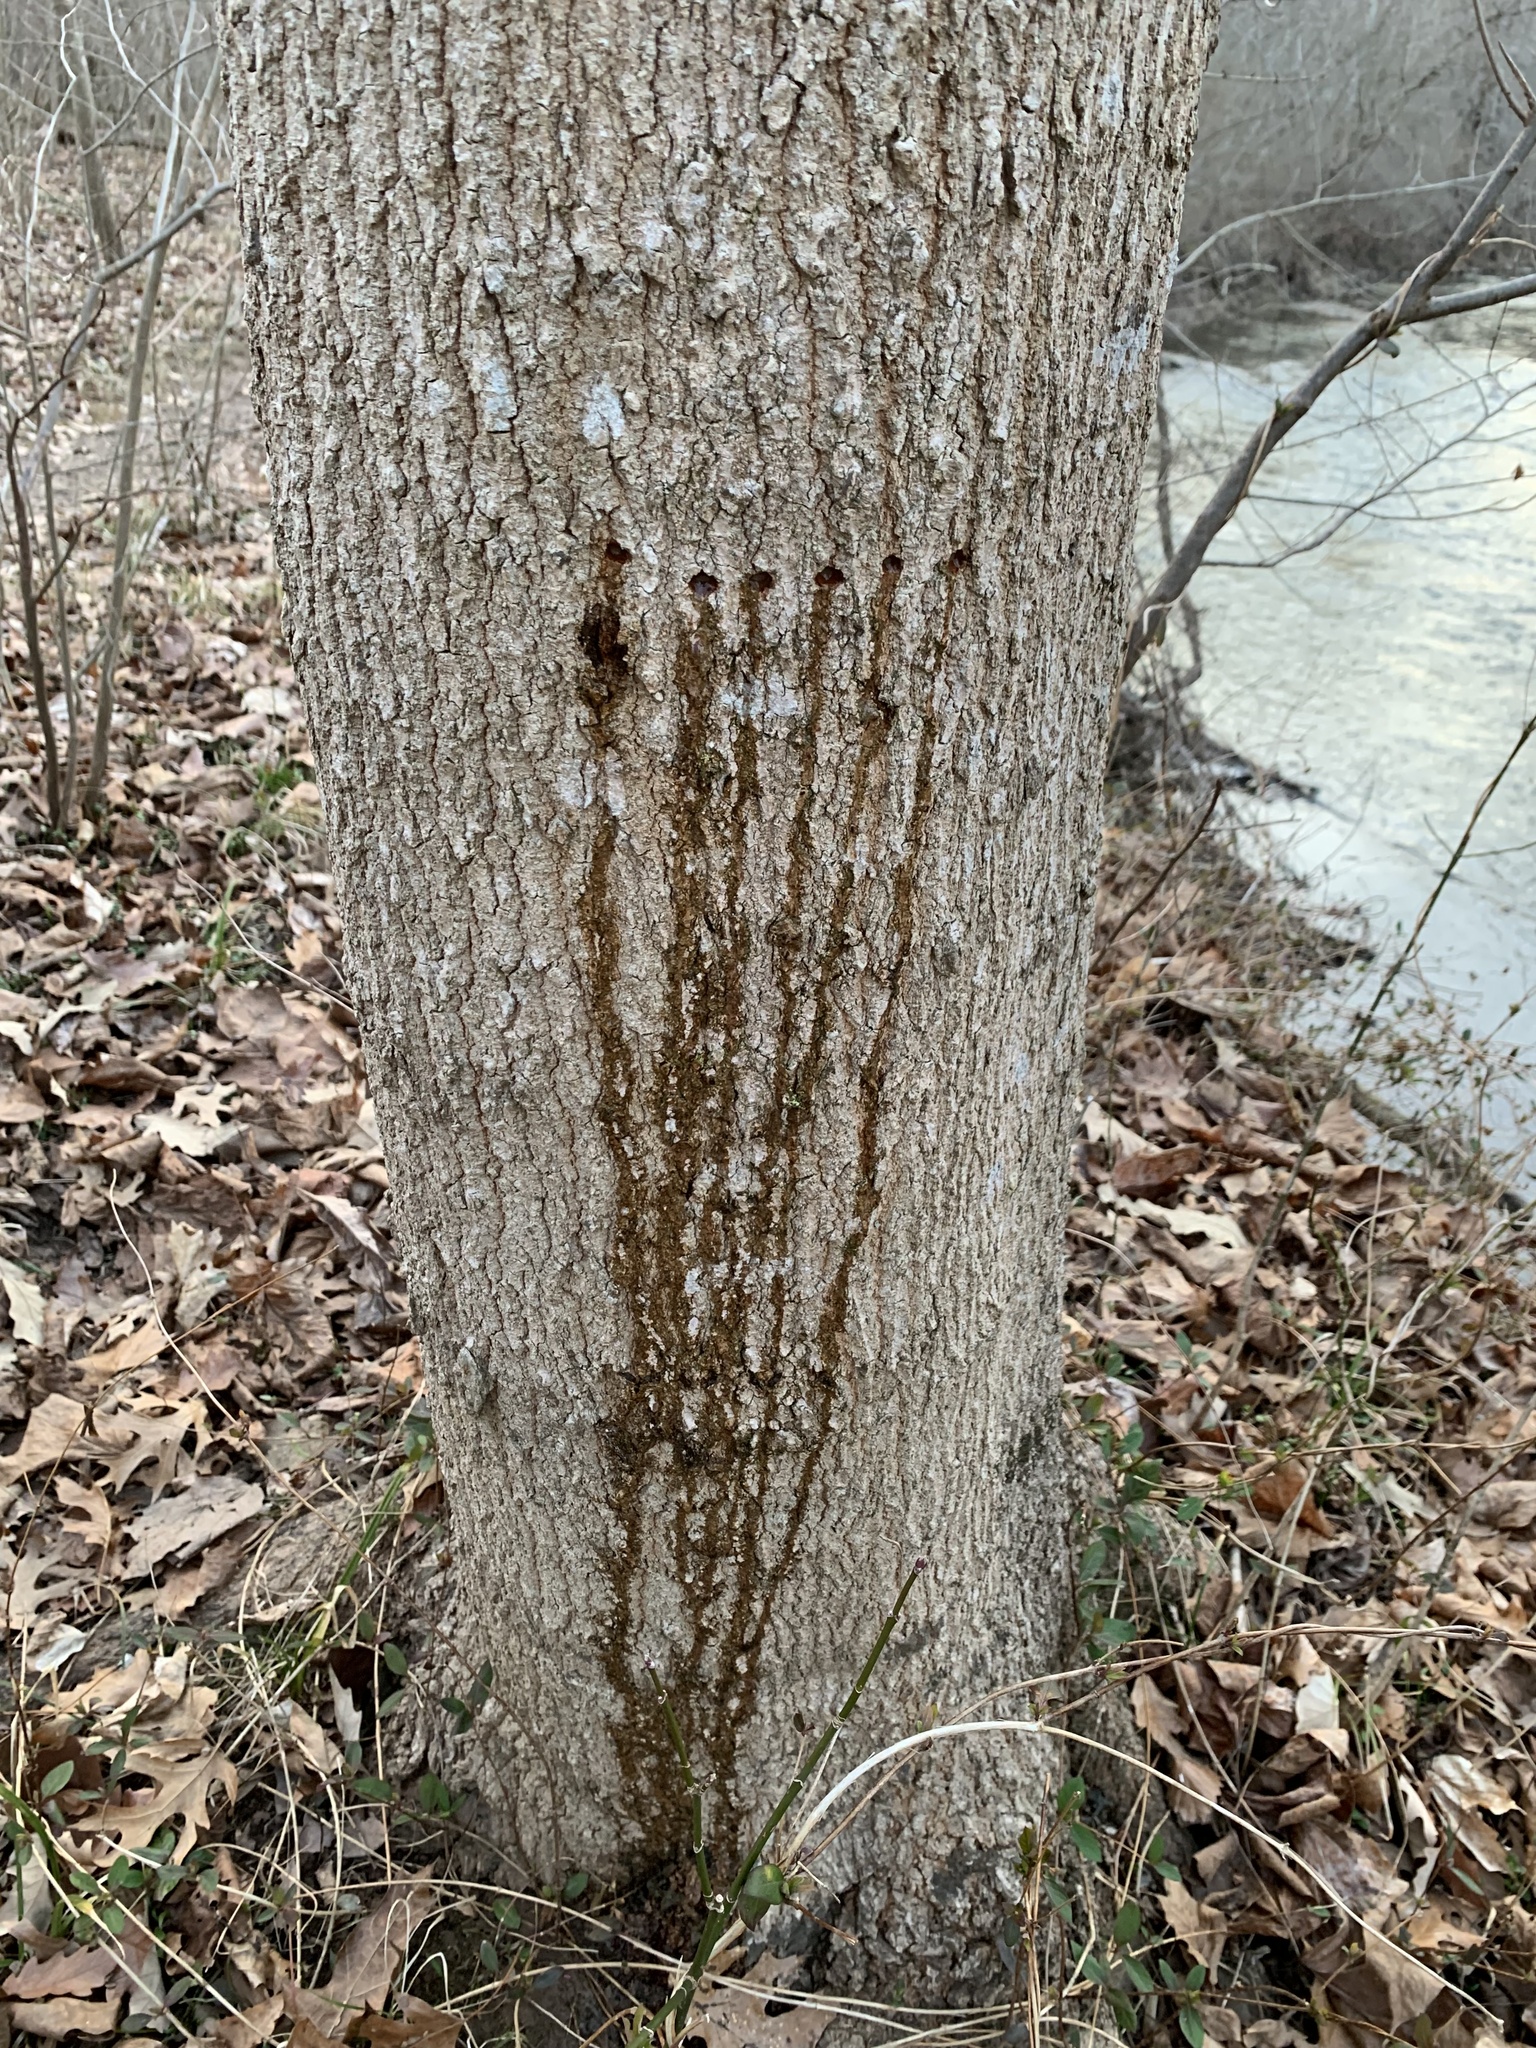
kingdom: Animalia
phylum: Chordata
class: Aves
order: Piciformes
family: Picidae
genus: Sphyrapicus
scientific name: Sphyrapicus varius
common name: Yellow-bellied sapsucker
